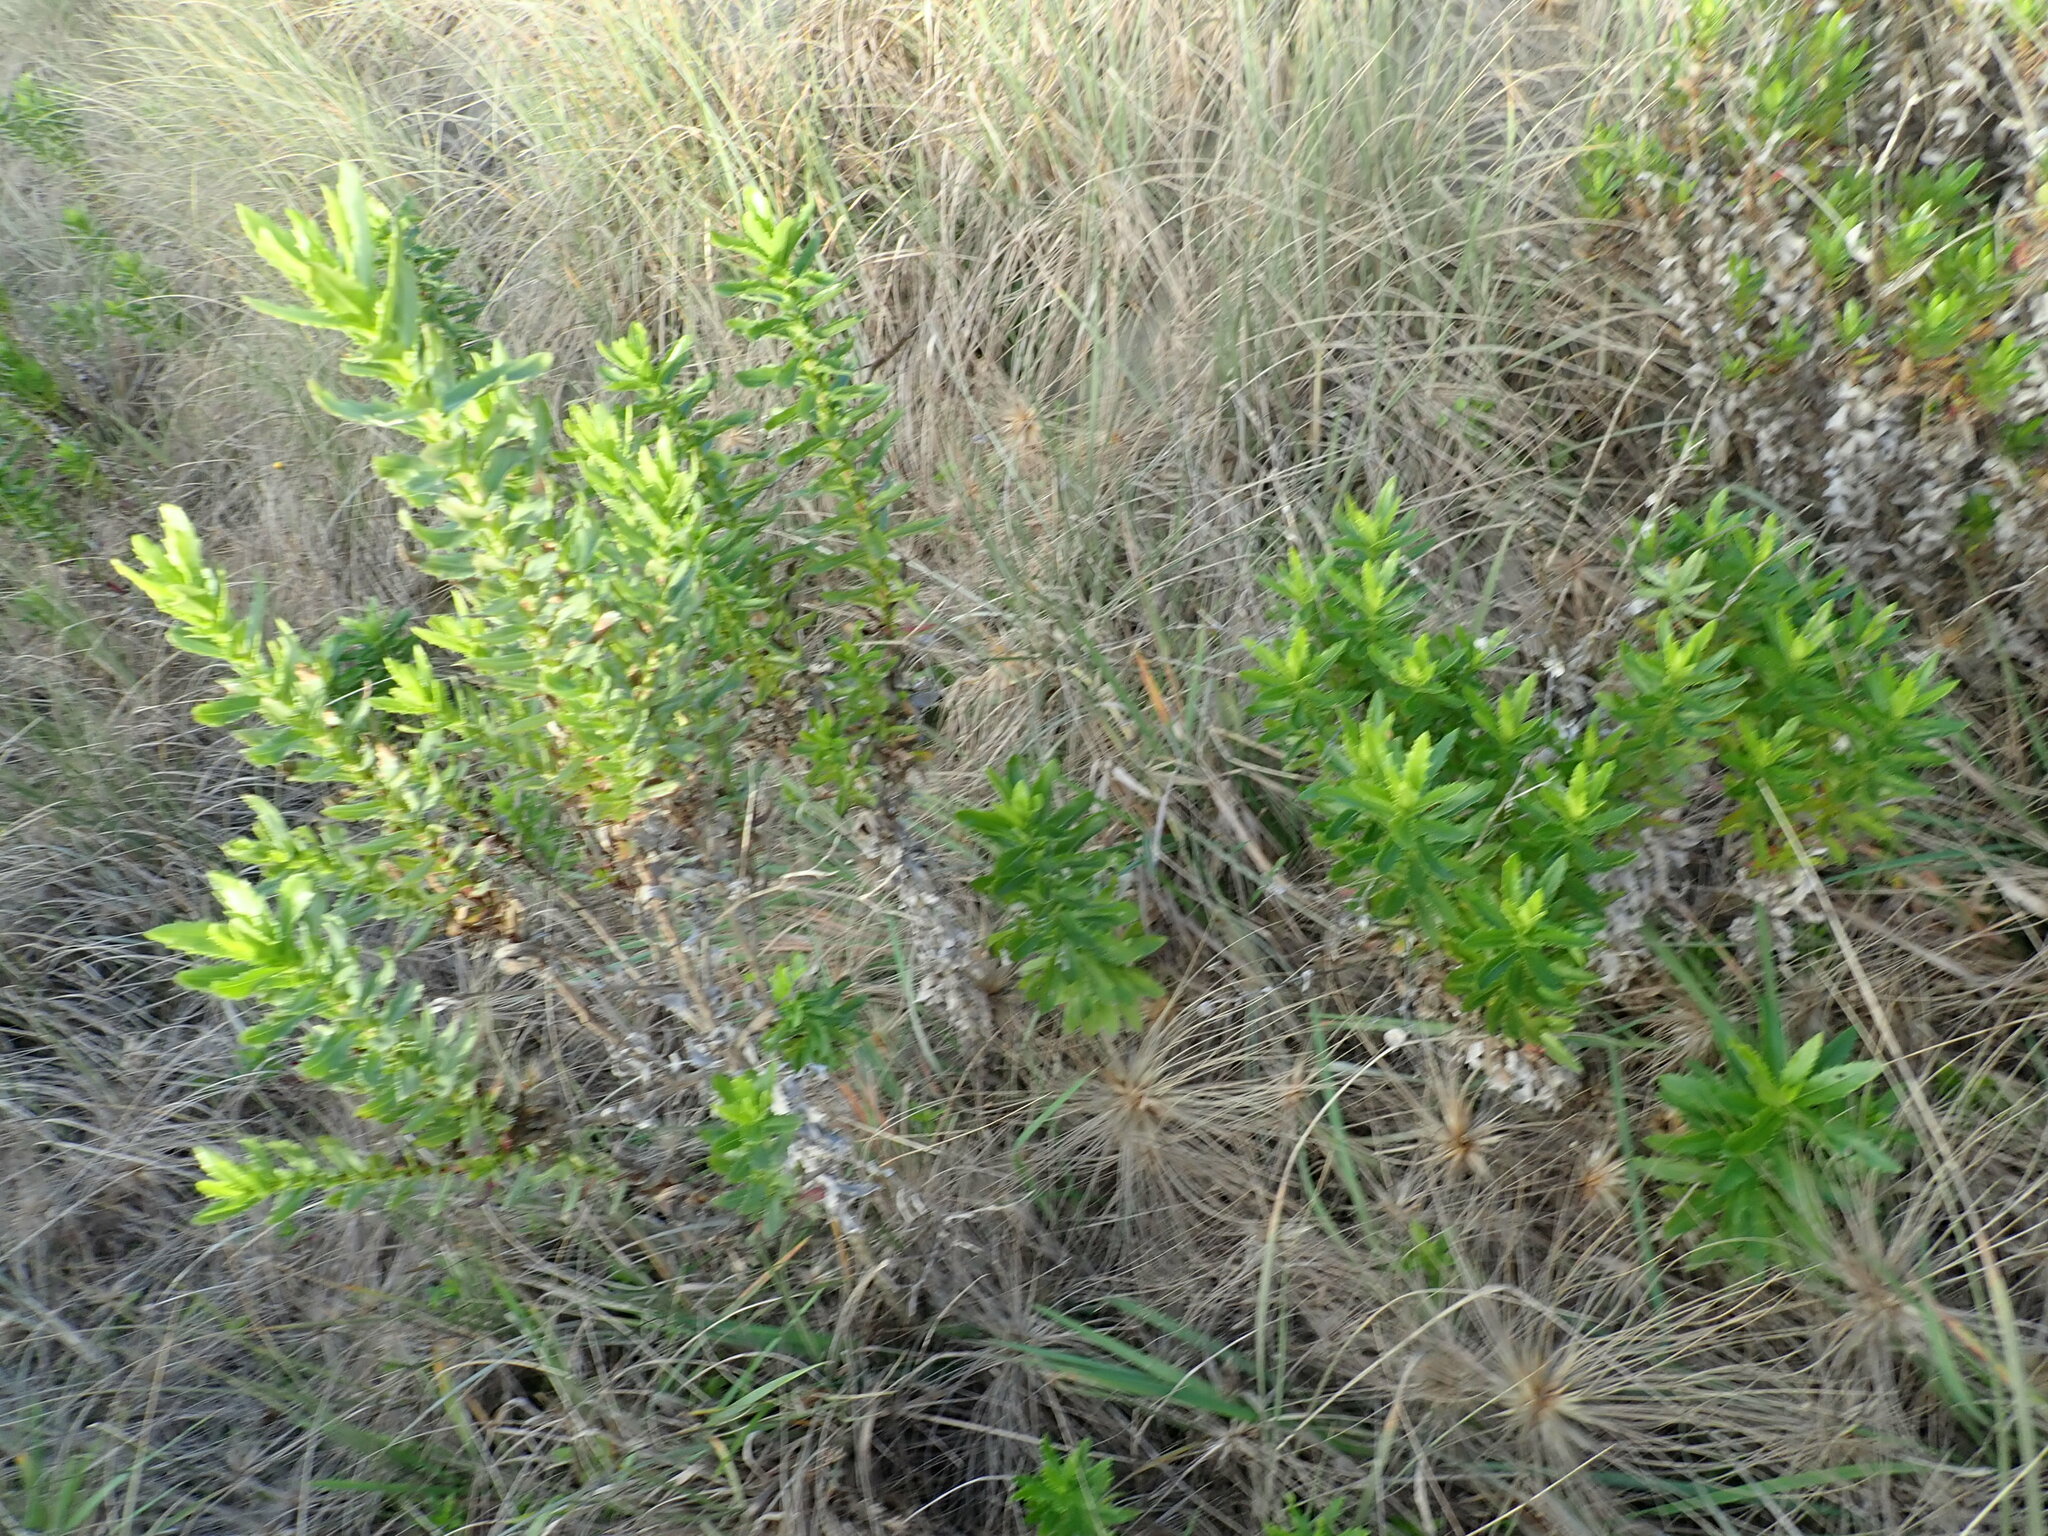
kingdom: Plantae
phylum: Tracheophyta
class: Magnoliopsida
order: Asterales
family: Asteraceae
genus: Senecio
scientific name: Senecio glastifolius
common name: Woad-leaved ragwort
